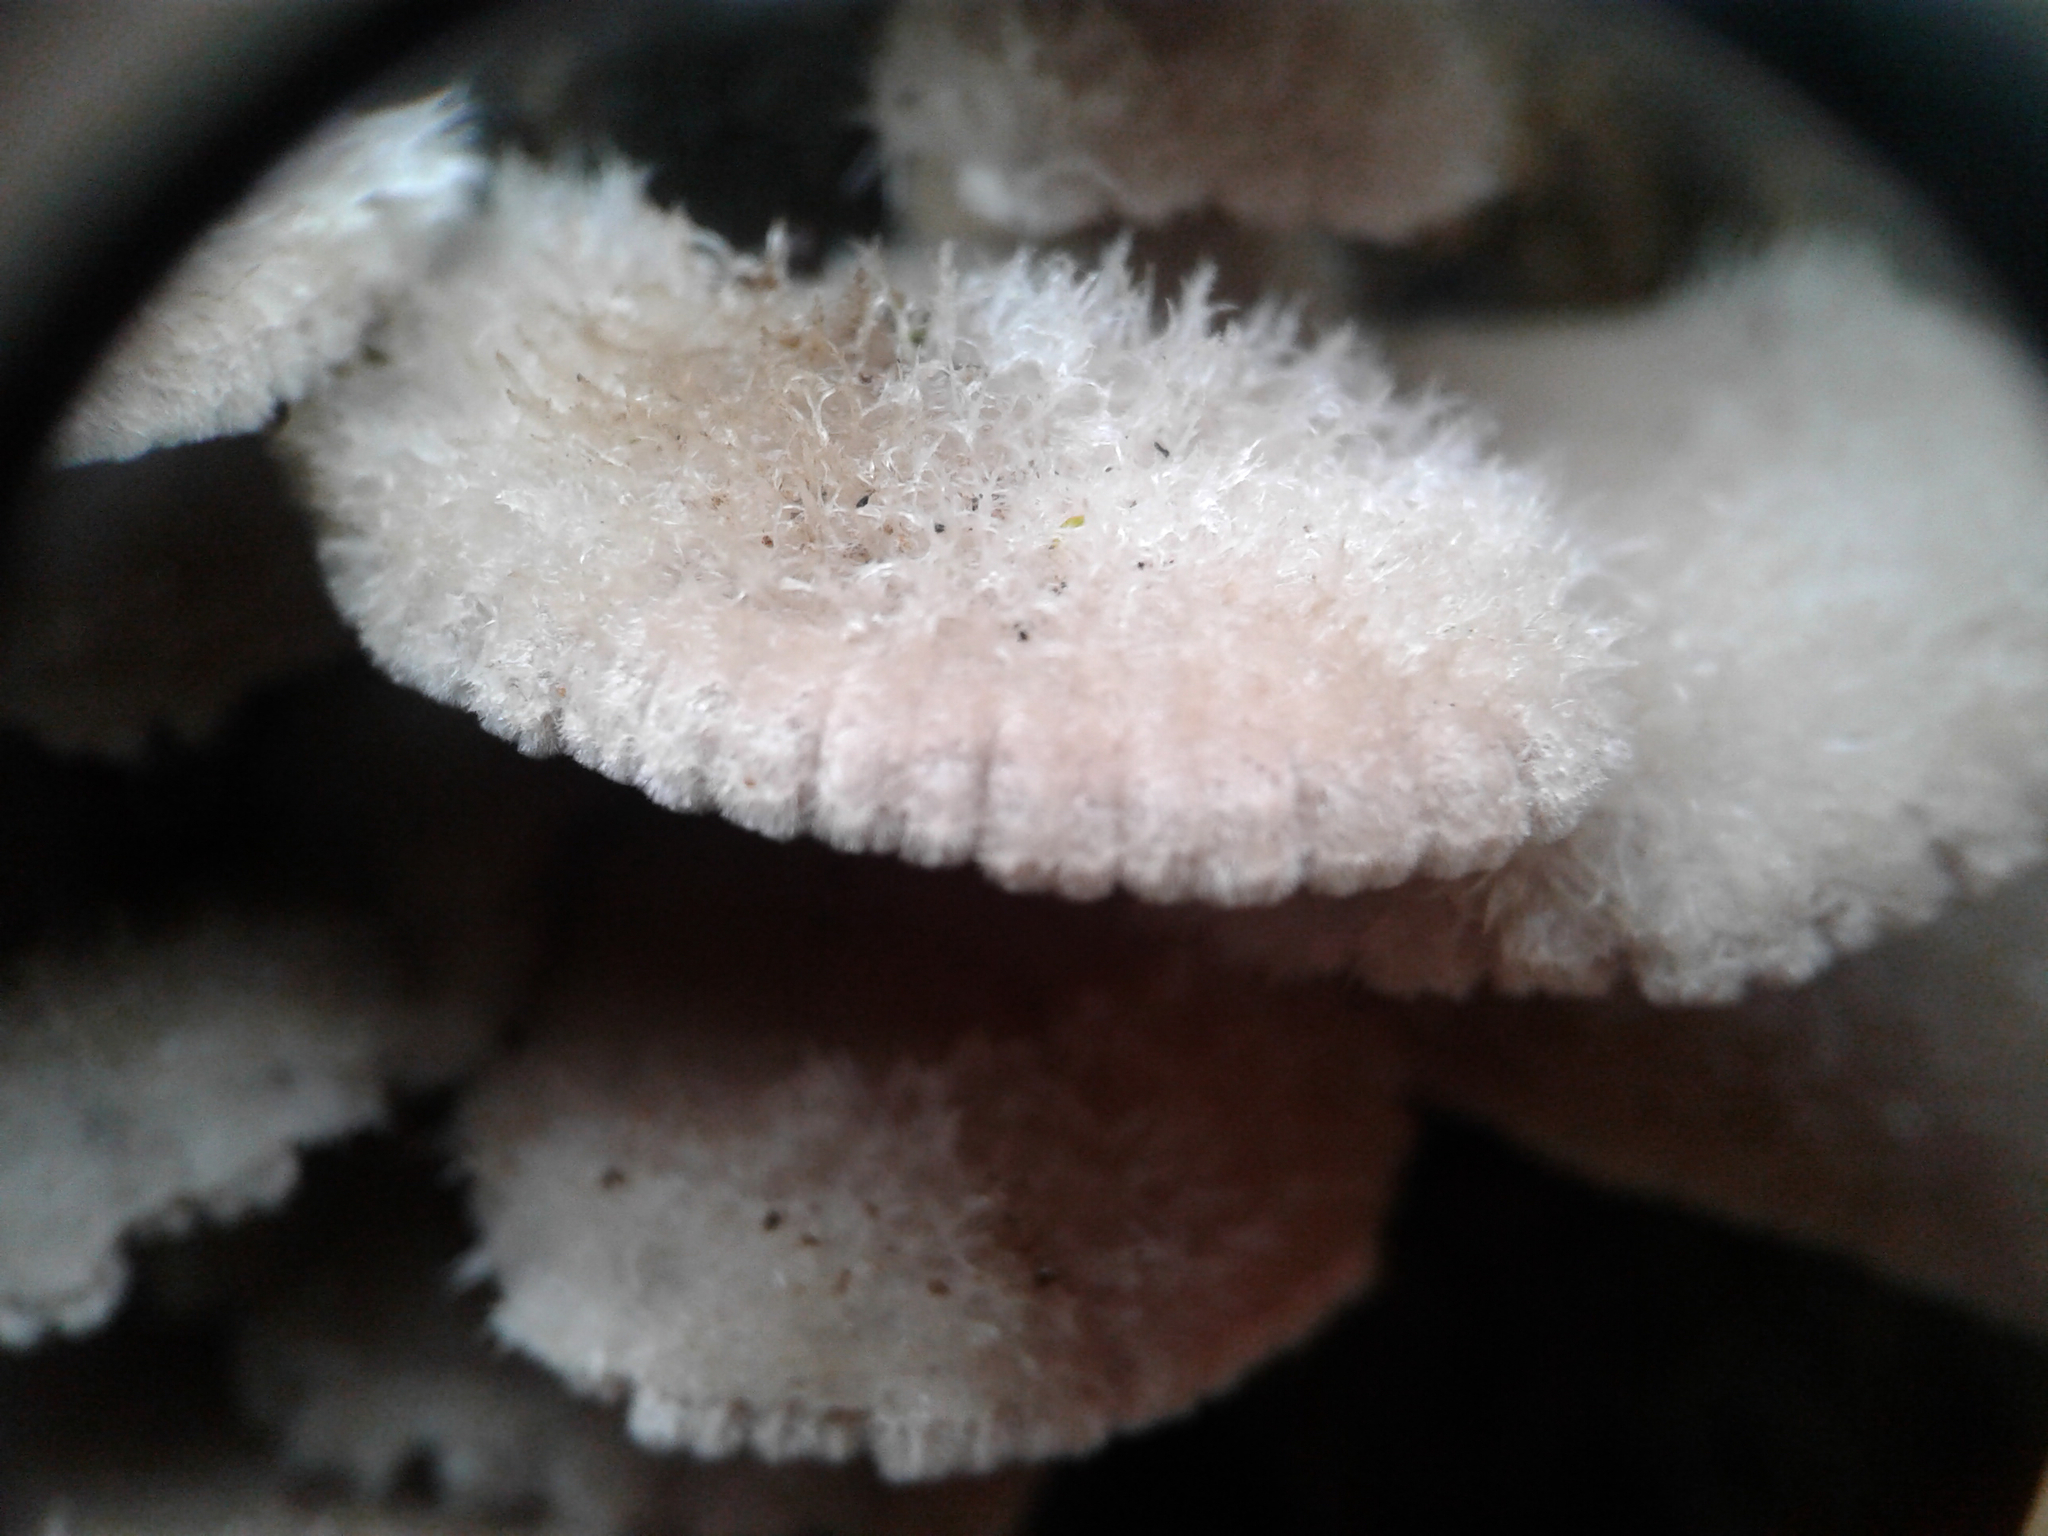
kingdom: Fungi
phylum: Basidiomycota
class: Agaricomycetes
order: Agaricales
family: Schizophyllaceae
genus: Schizophyllum
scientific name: Schizophyllum commune
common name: Common porecrust
